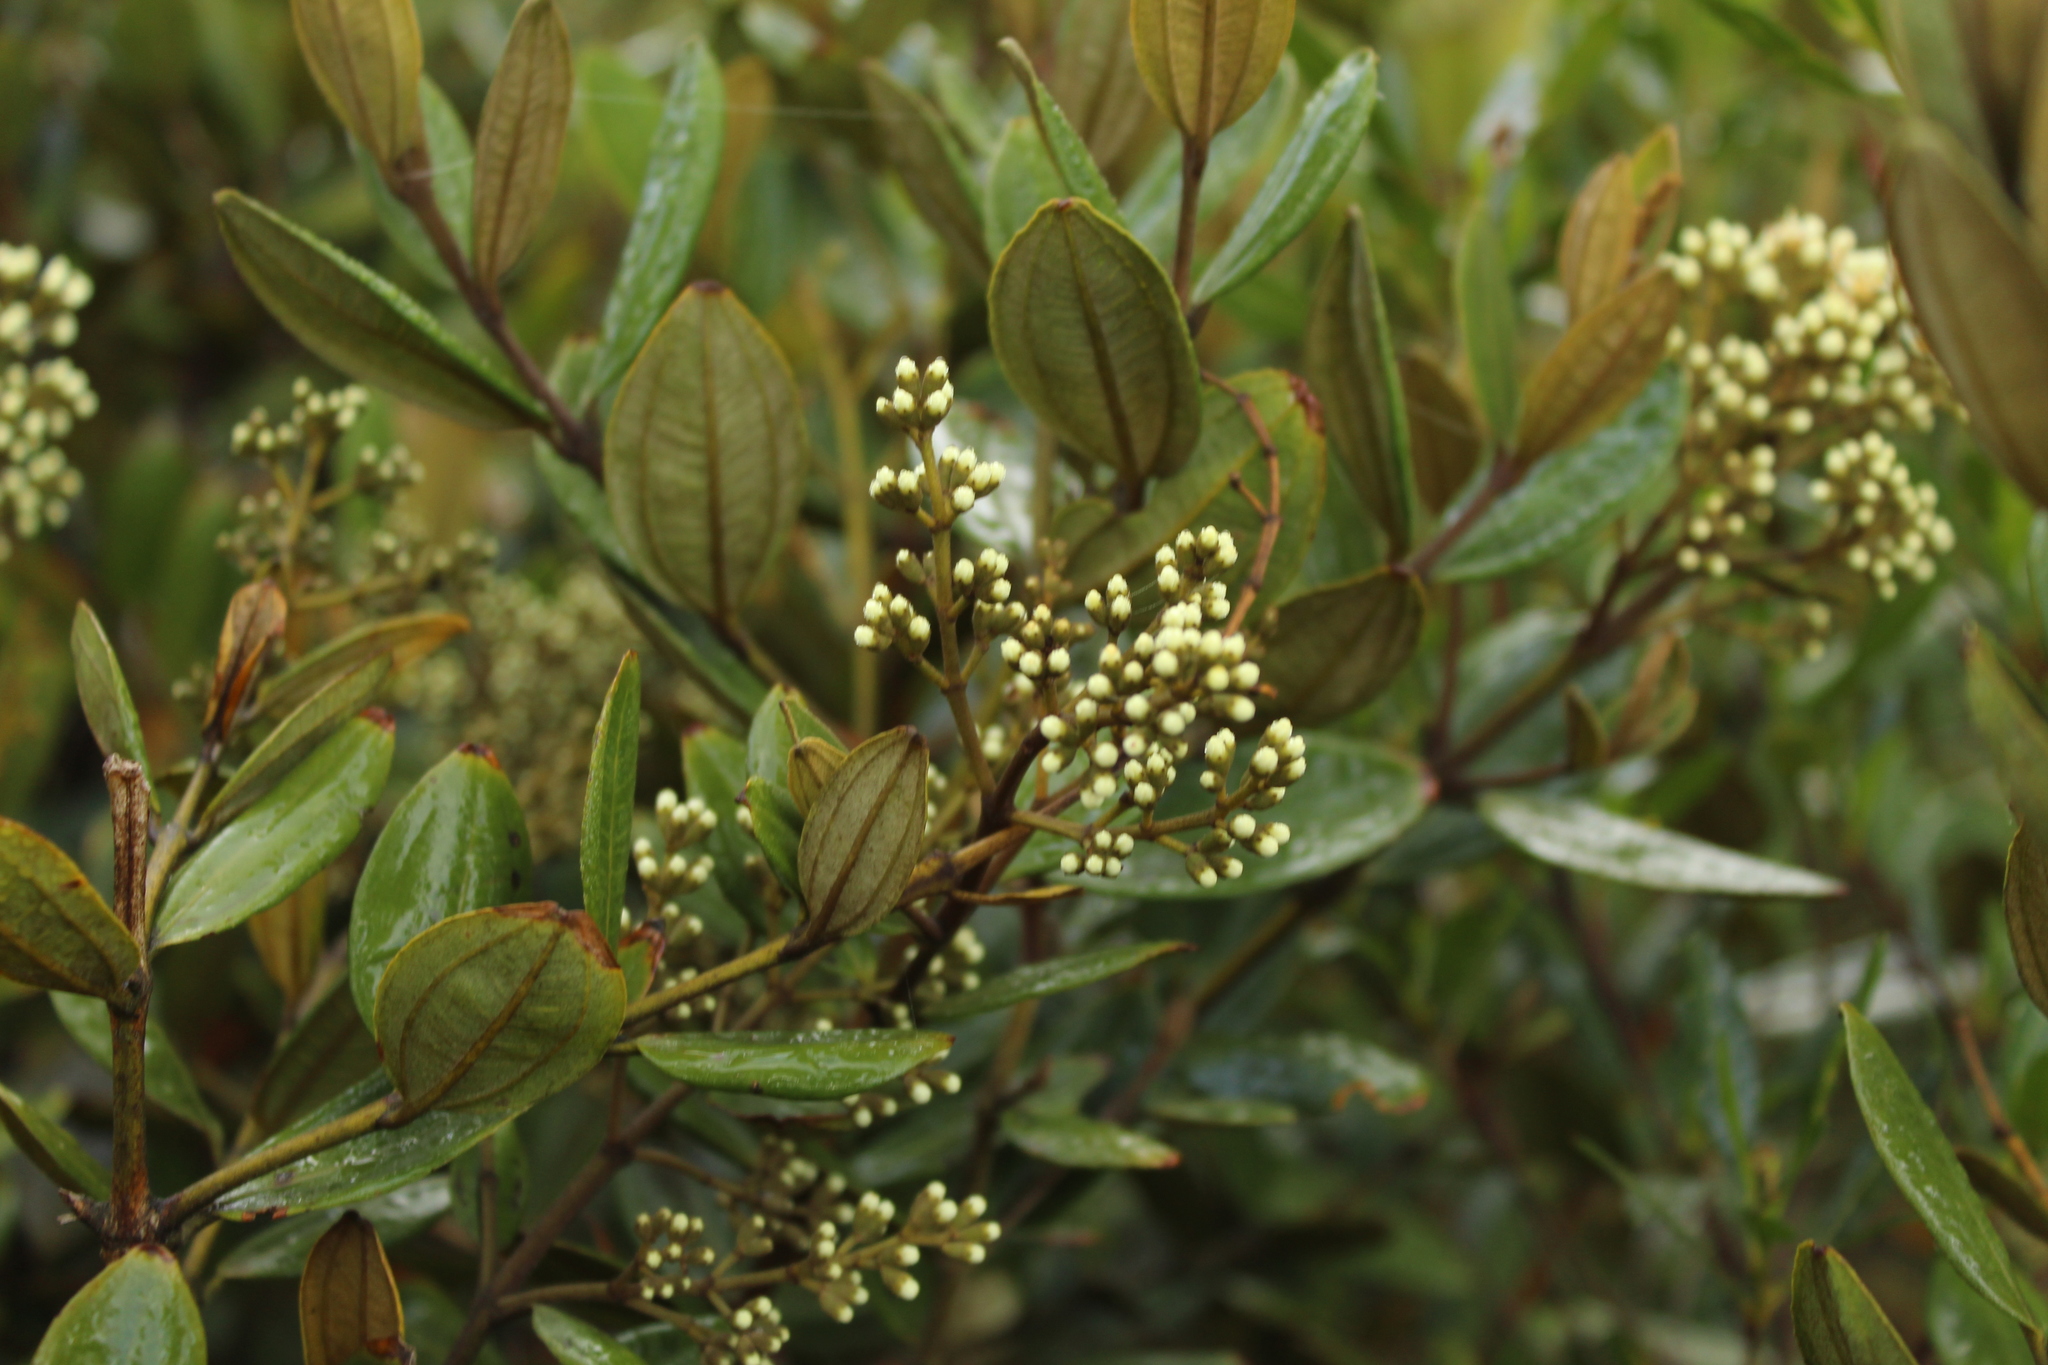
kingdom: Plantae
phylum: Tracheophyta
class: Magnoliopsida
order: Myrtales
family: Melastomataceae
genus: Miconia
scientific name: Miconia squamulosa
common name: Squamulose maya
